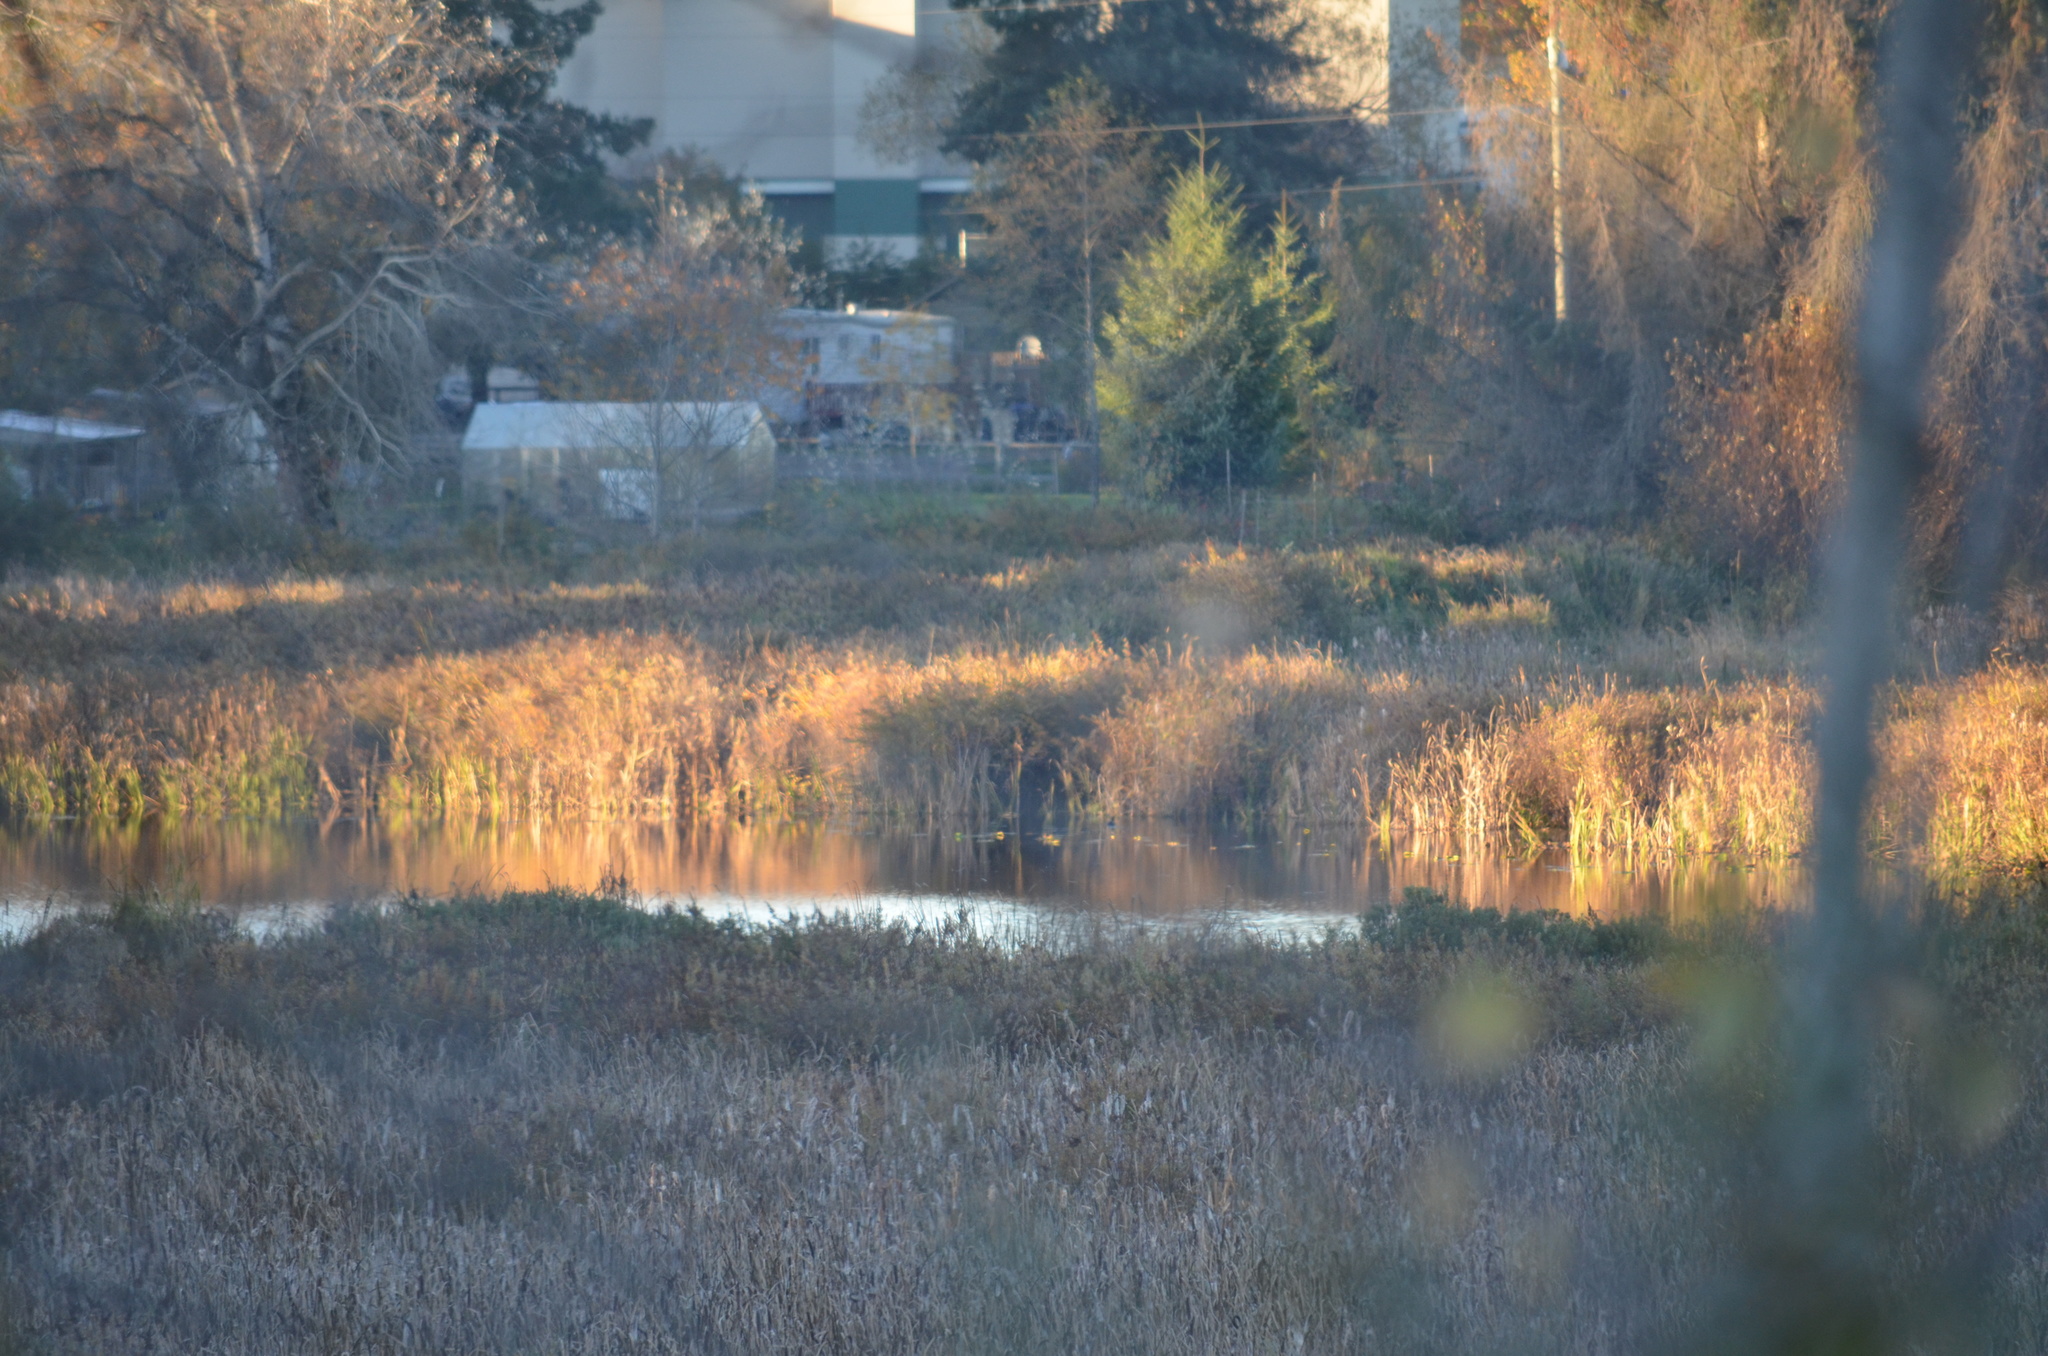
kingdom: Animalia
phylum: Chordata
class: Aves
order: Gruiformes
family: Rallidae
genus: Fulica
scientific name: Fulica americana
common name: American coot
